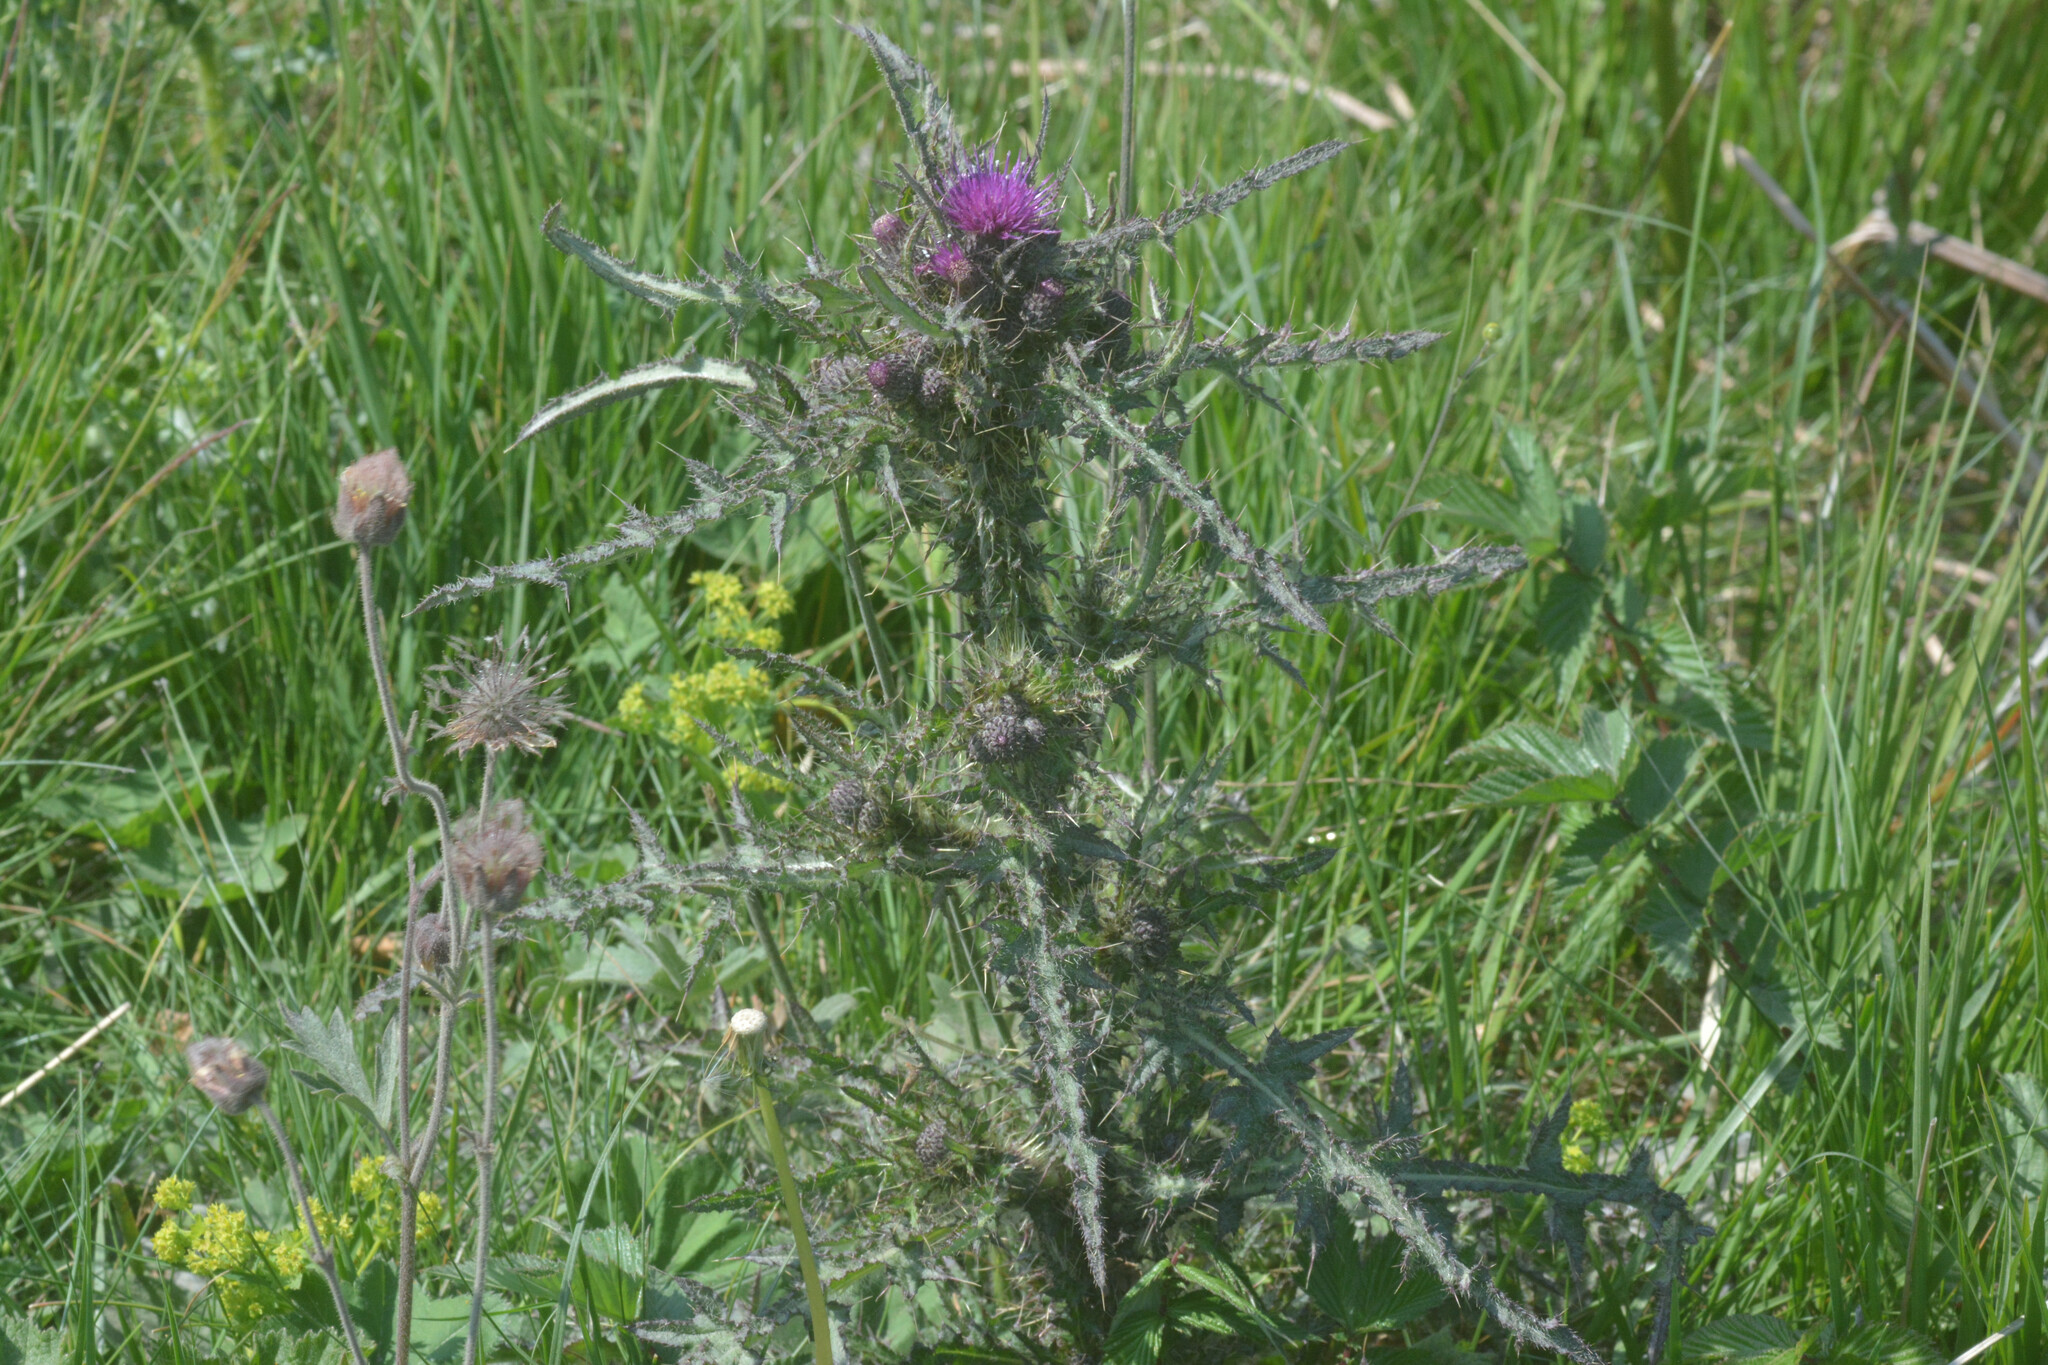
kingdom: Plantae
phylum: Tracheophyta
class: Magnoliopsida
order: Asterales
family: Asteraceae
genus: Cirsium
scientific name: Cirsium palustre
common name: Marsh thistle
